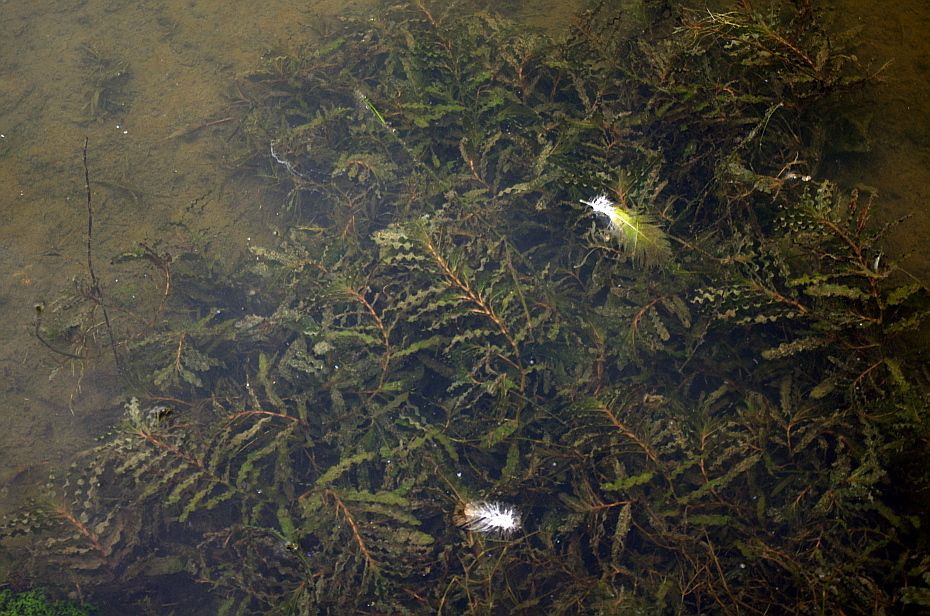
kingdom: Plantae
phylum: Tracheophyta
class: Liliopsida
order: Alismatales
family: Potamogetonaceae
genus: Potamogeton
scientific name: Potamogeton crispus
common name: Curled pondweed
